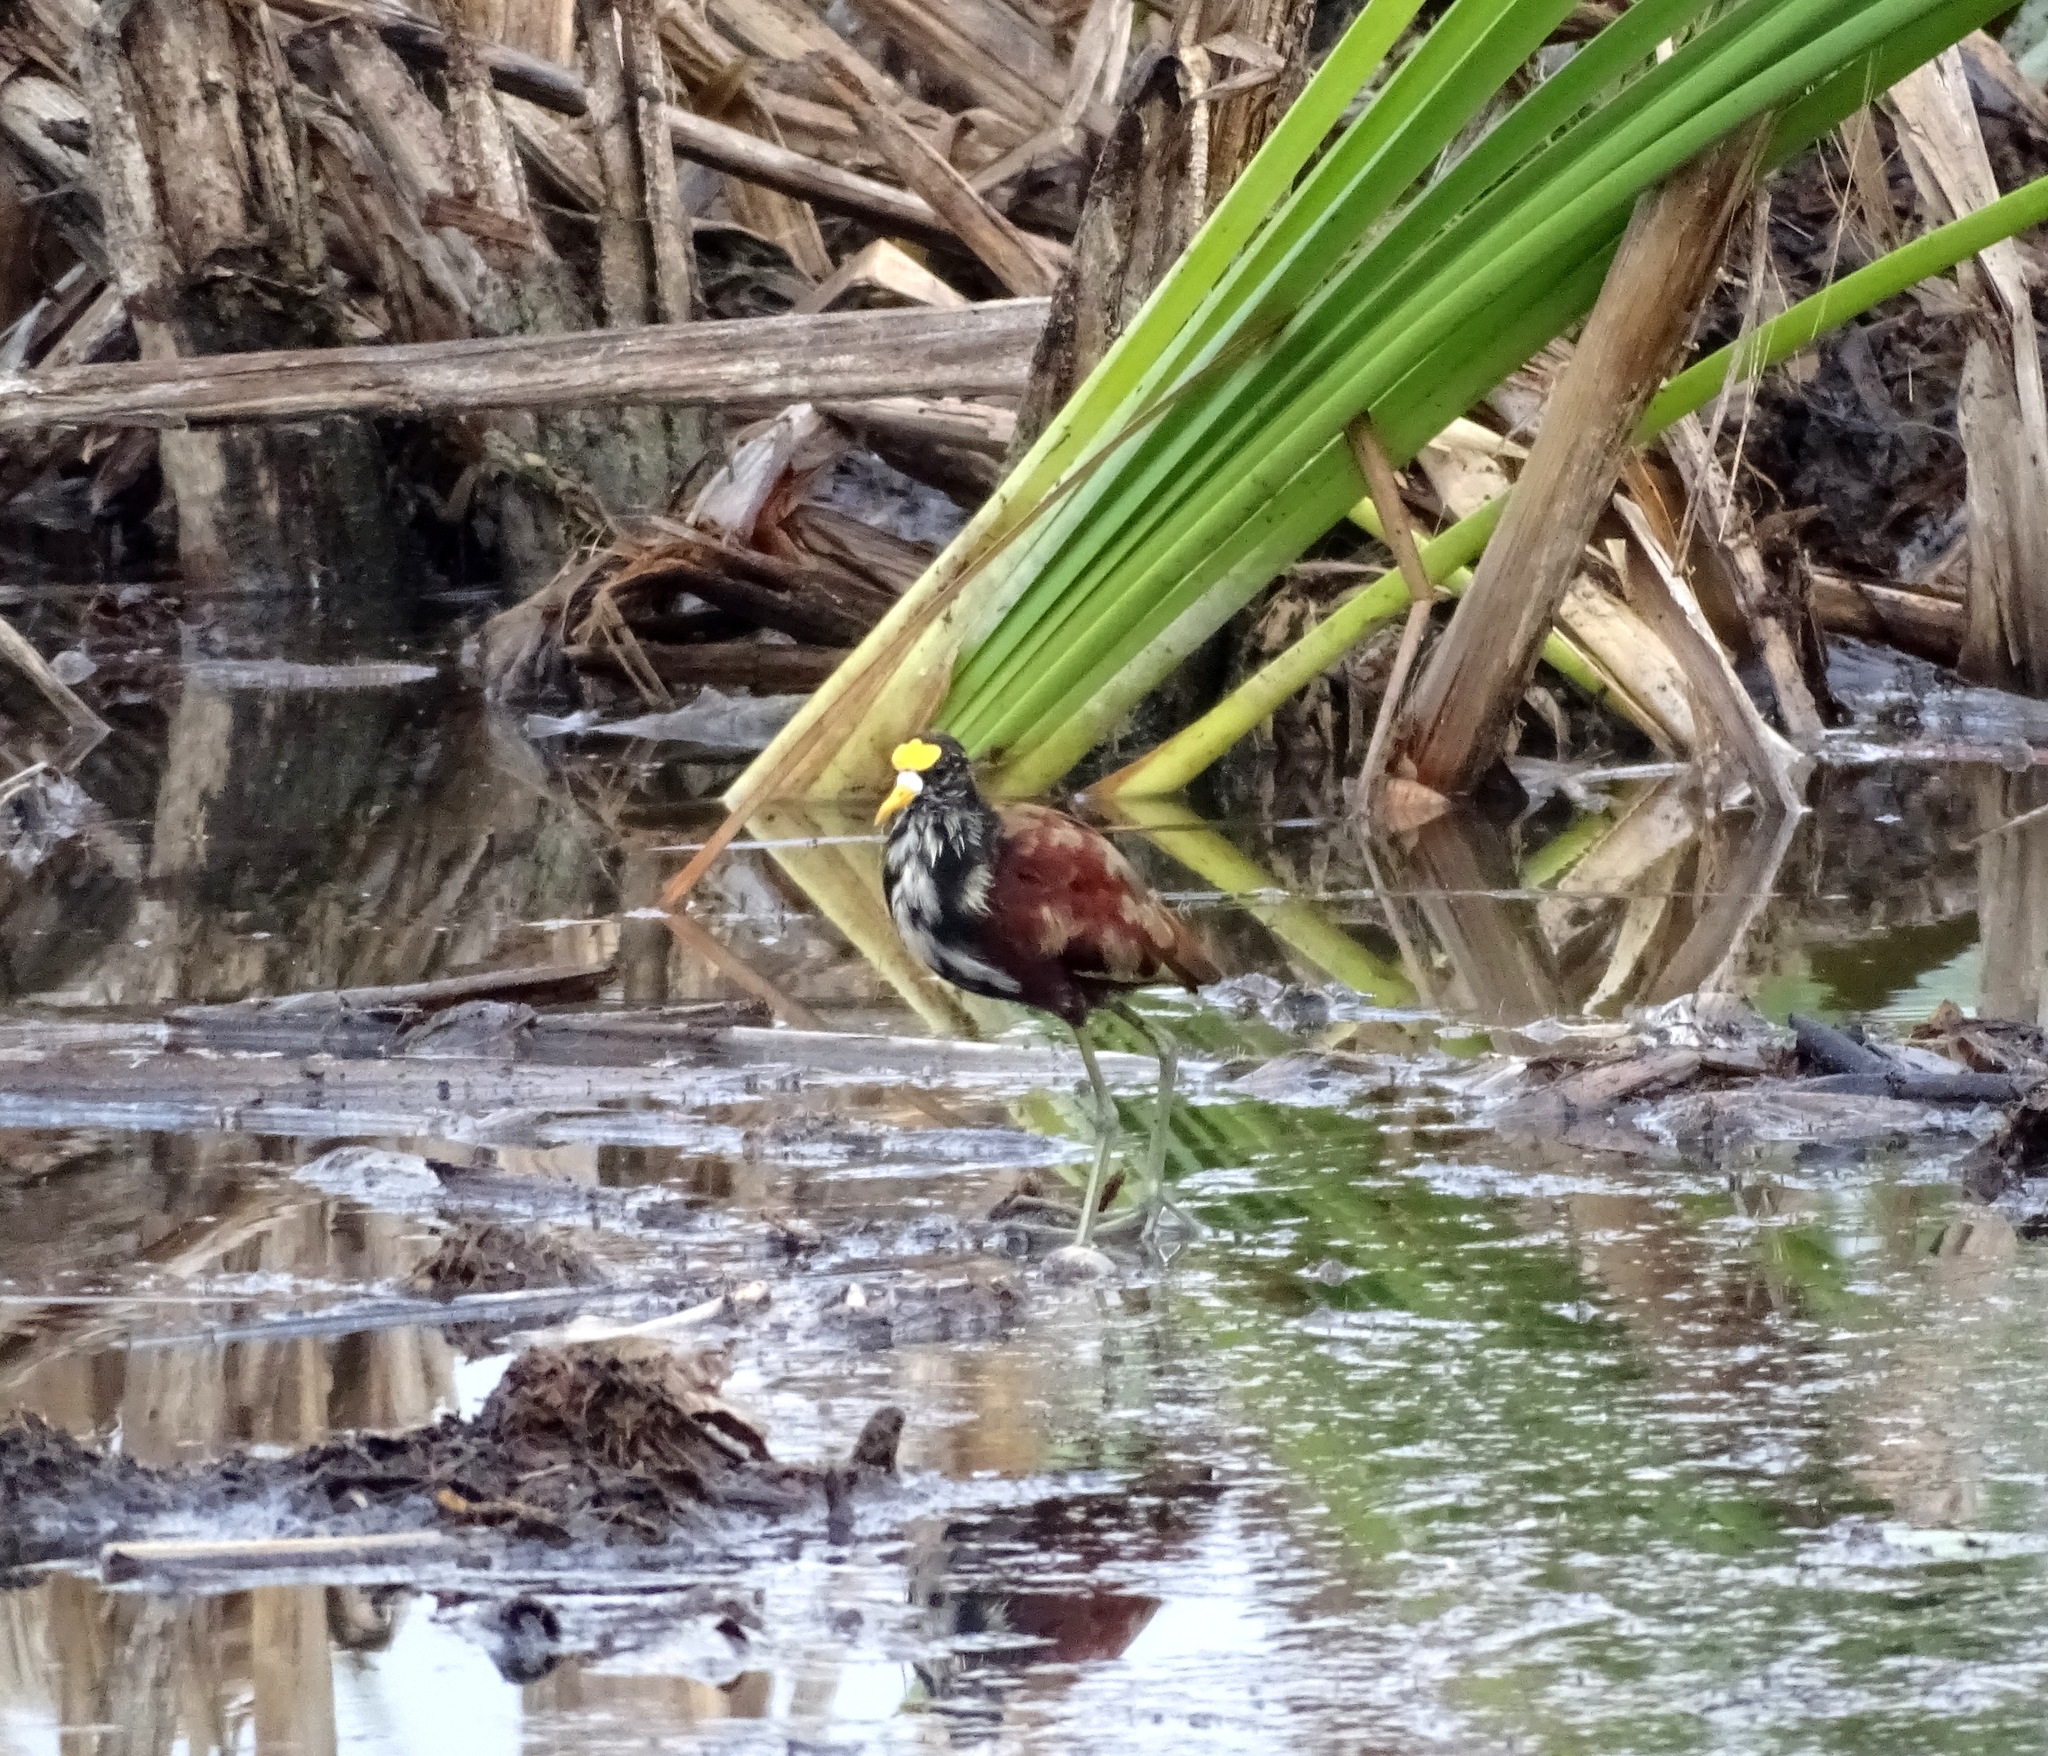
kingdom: Animalia
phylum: Chordata
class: Aves
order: Charadriiformes
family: Jacanidae
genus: Jacana
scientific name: Jacana spinosa
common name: Northern jacana
